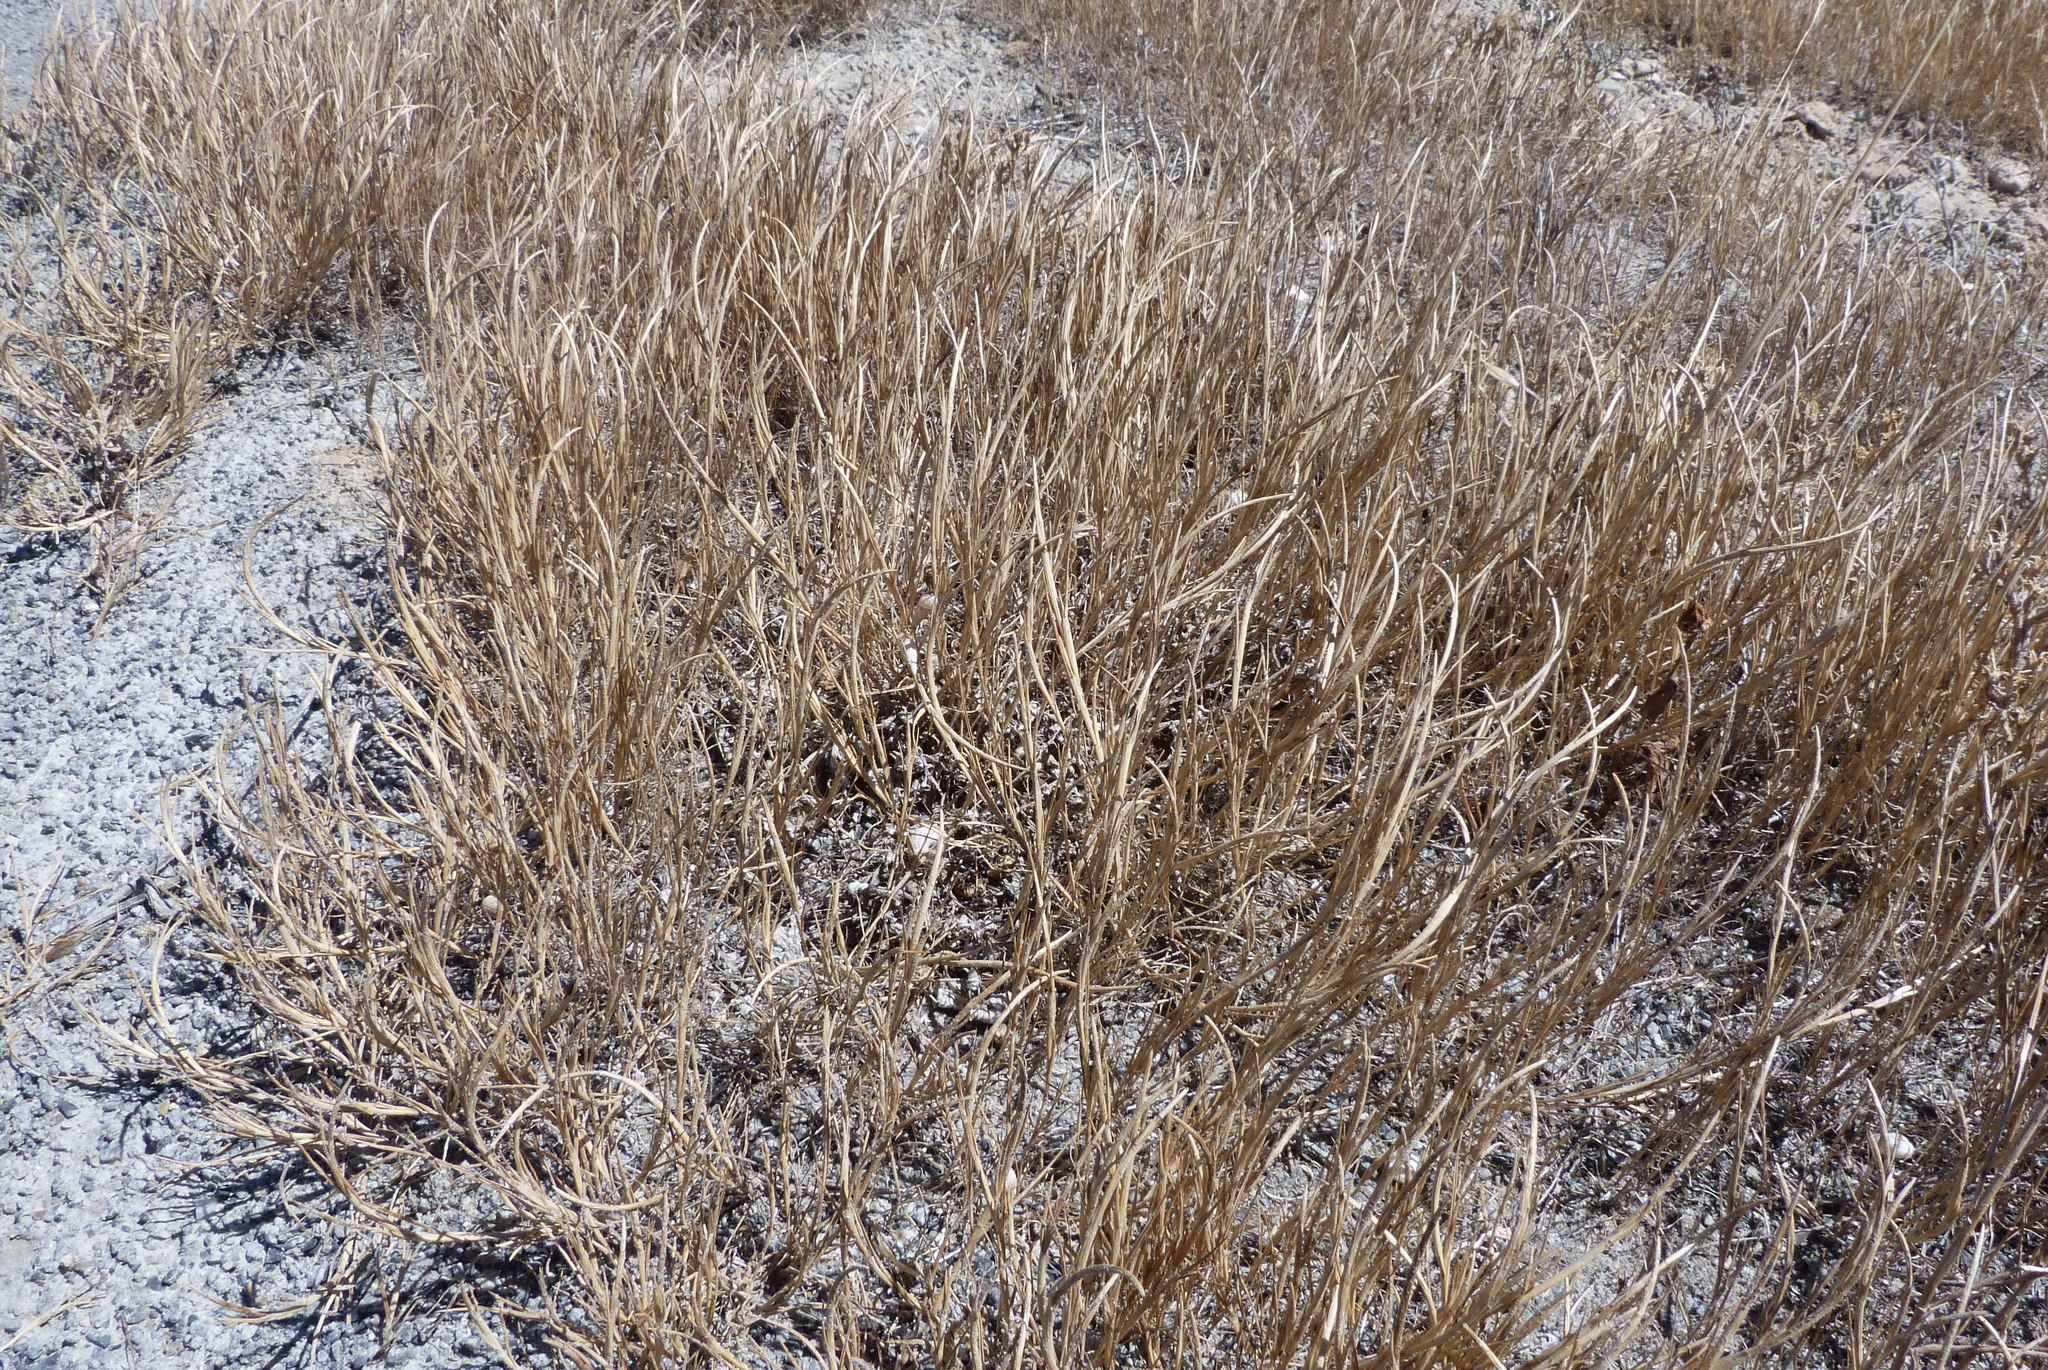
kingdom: Plantae
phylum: Tracheophyta
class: Liliopsida
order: Poales
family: Poaceae
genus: Parapholis
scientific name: Parapholis incurva
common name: Curved sicklegrass
